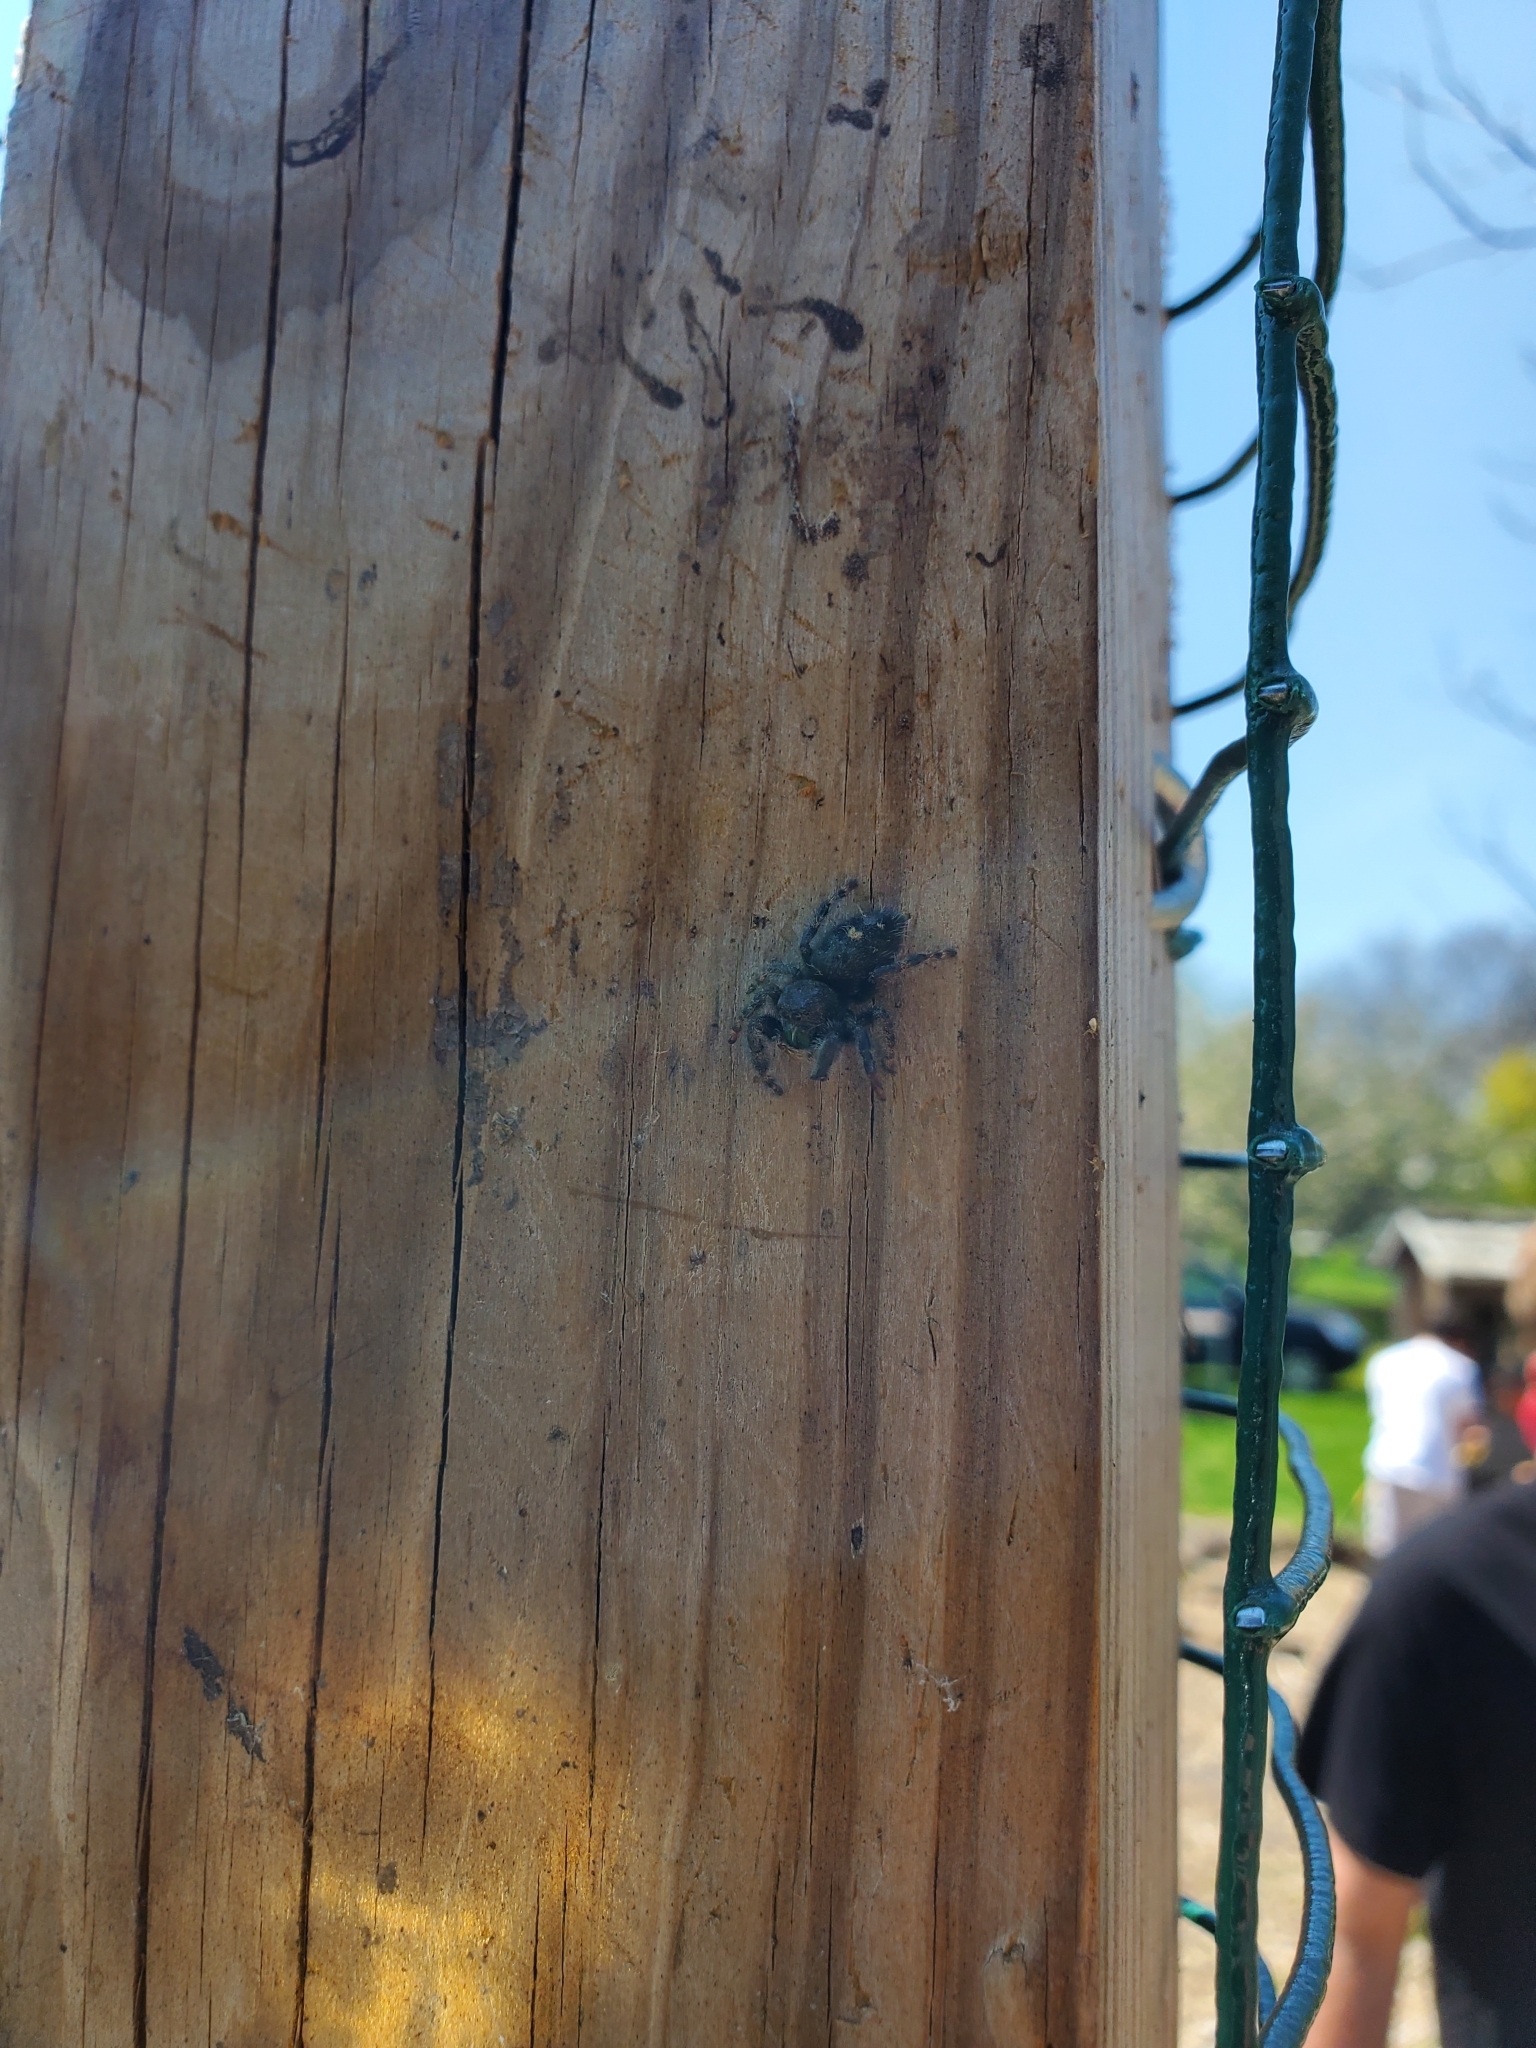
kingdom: Animalia
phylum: Arthropoda
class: Arachnida
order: Araneae
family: Salticidae
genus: Phidippus
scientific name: Phidippus audax
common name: Bold jumper
